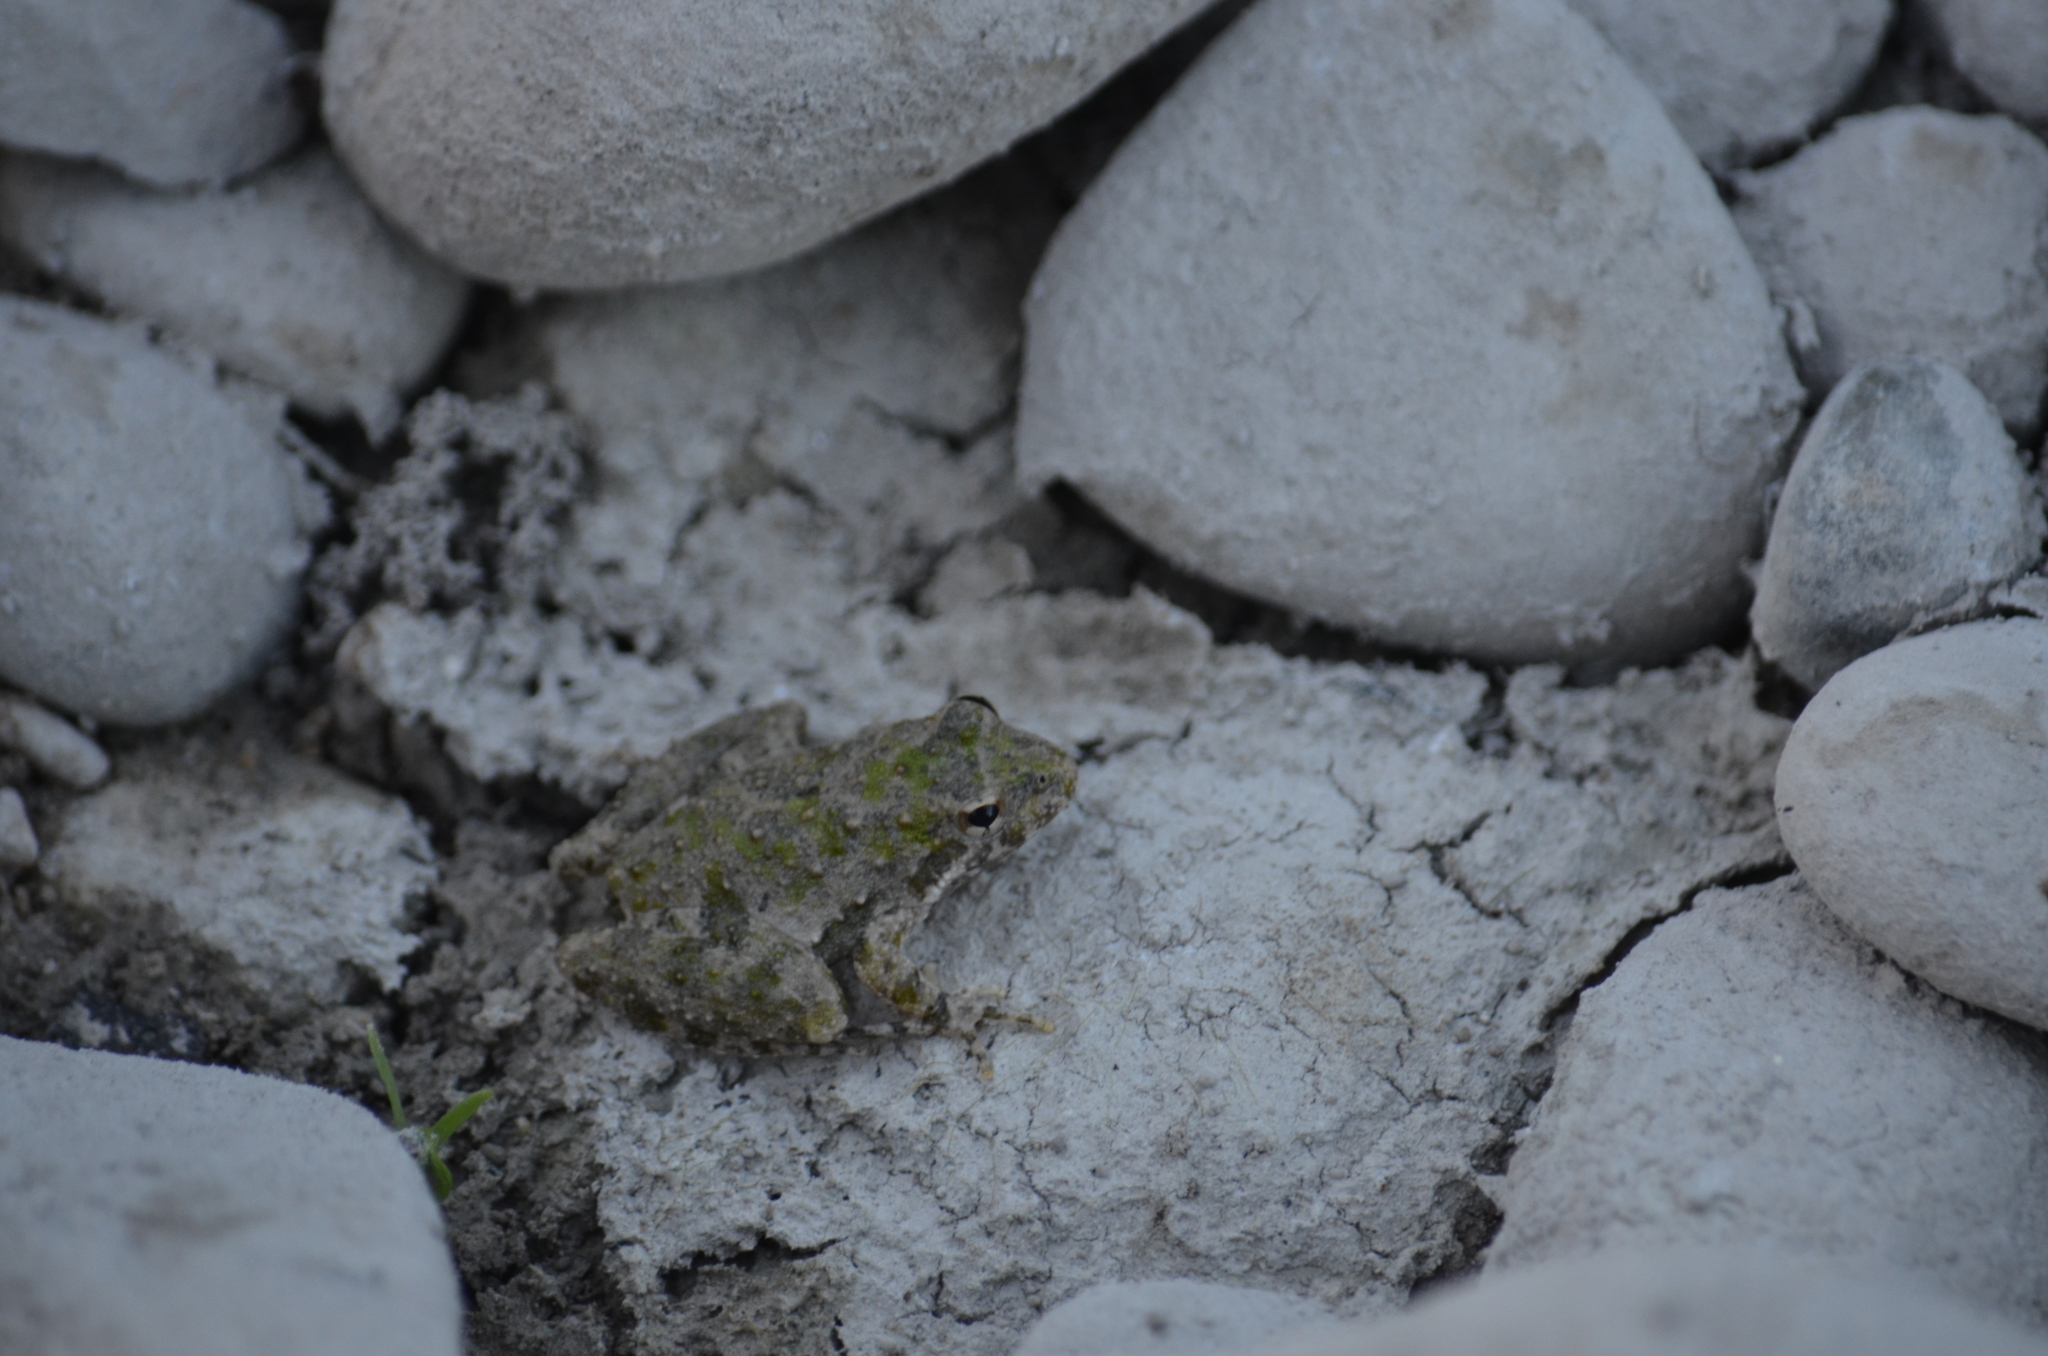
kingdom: Animalia
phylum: Chordata
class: Amphibia
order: Anura
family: Hylidae
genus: Acris
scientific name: Acris blanchardi
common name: Blanchard's cricket frog
